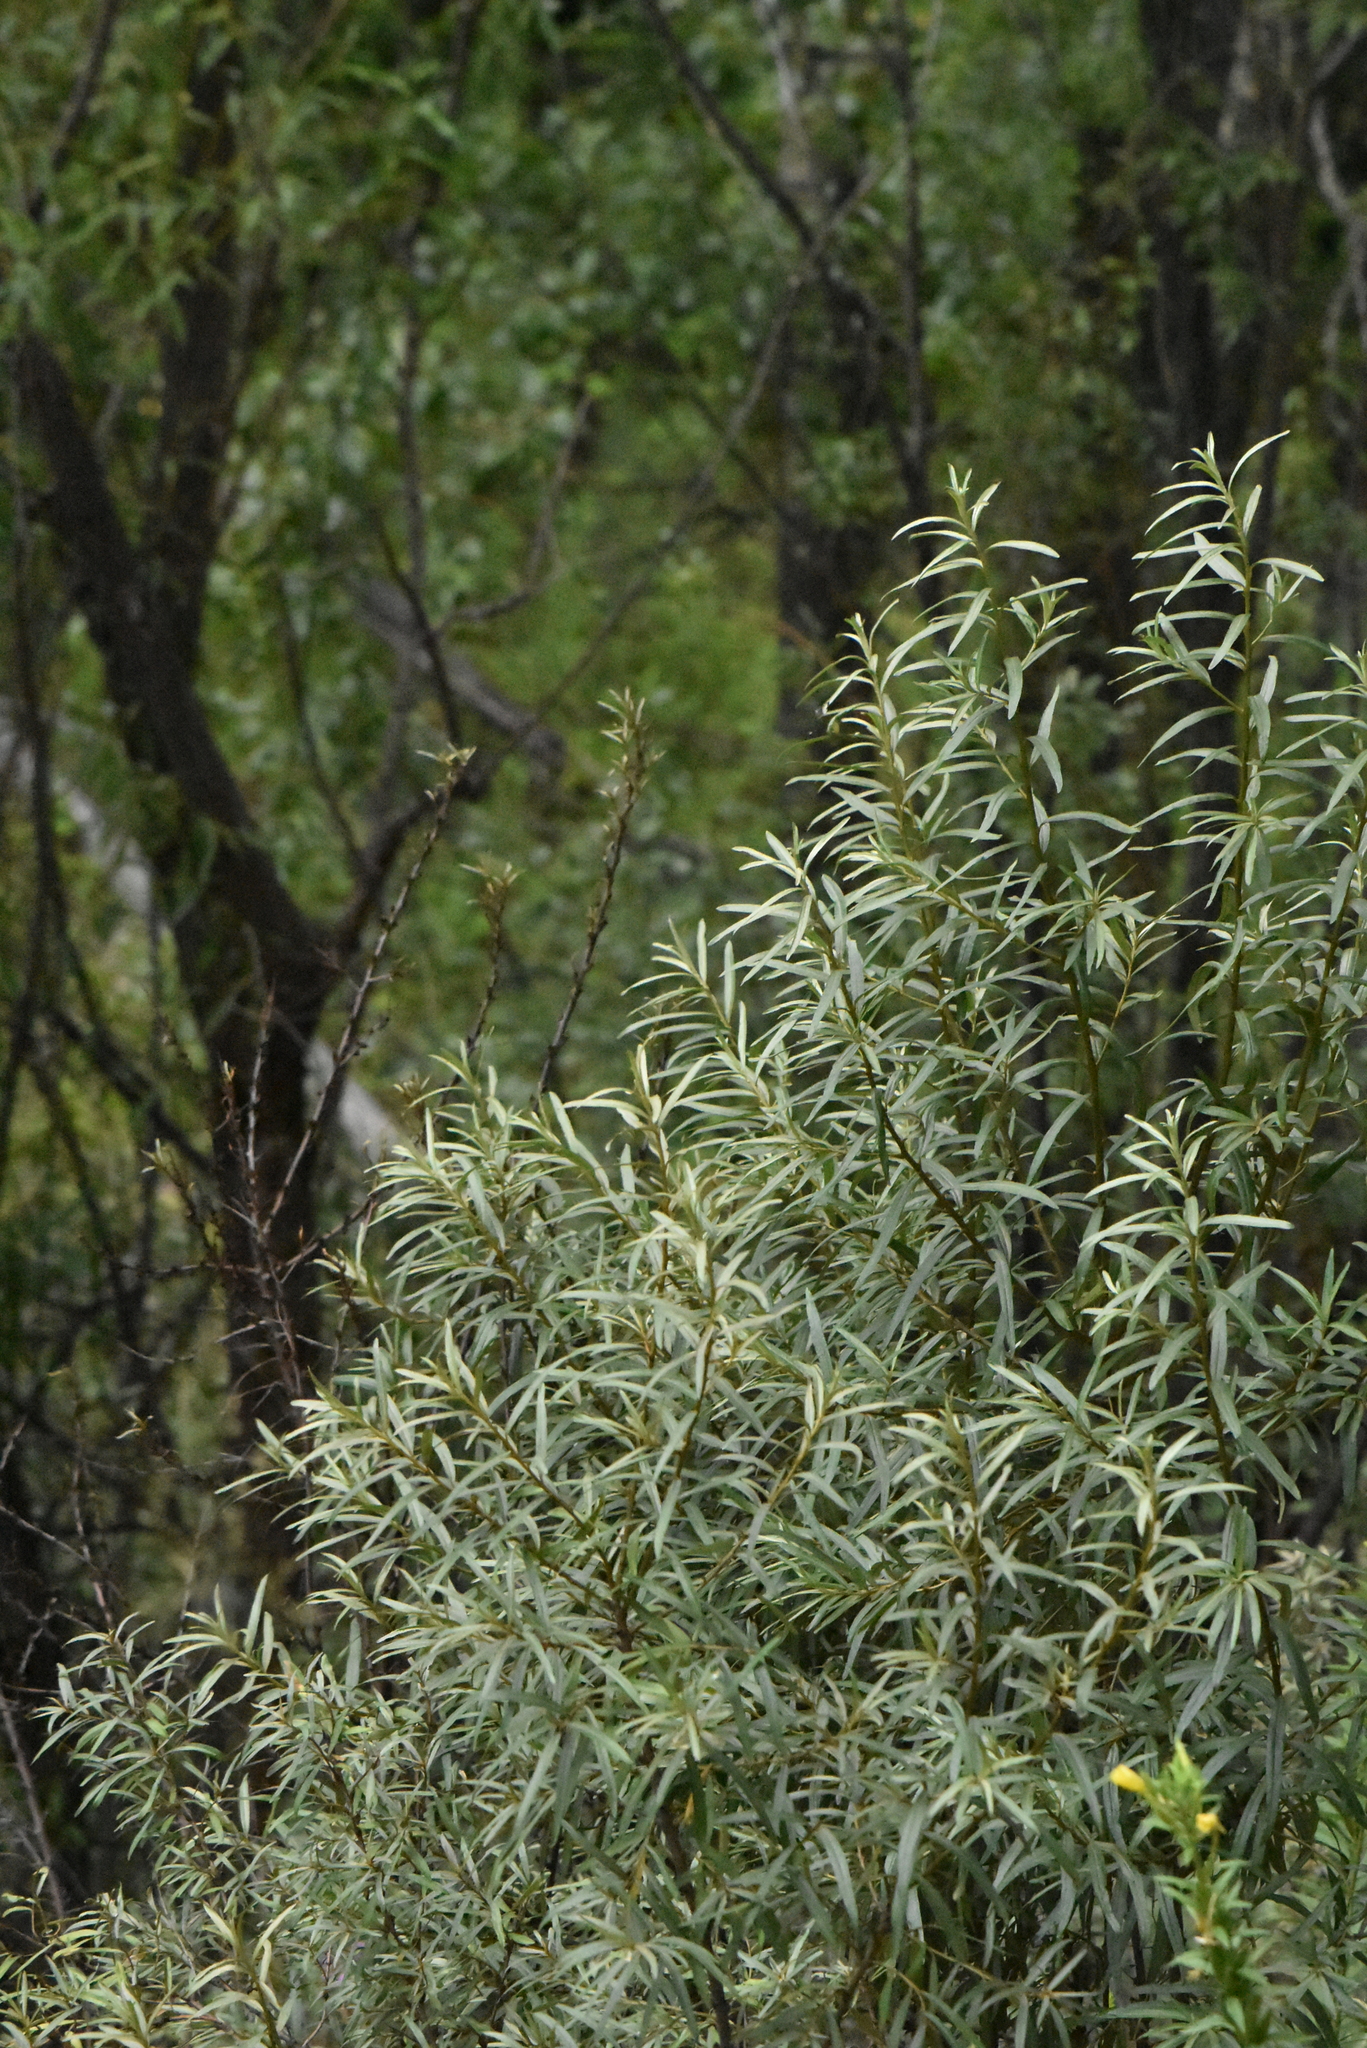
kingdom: Plantae
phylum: Tracheophyta
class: Magnoliopsida
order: Rosales
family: Elaeagnaceae
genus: Hippophae
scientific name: Hippophae rhamnoides
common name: Sea-buckthorn
